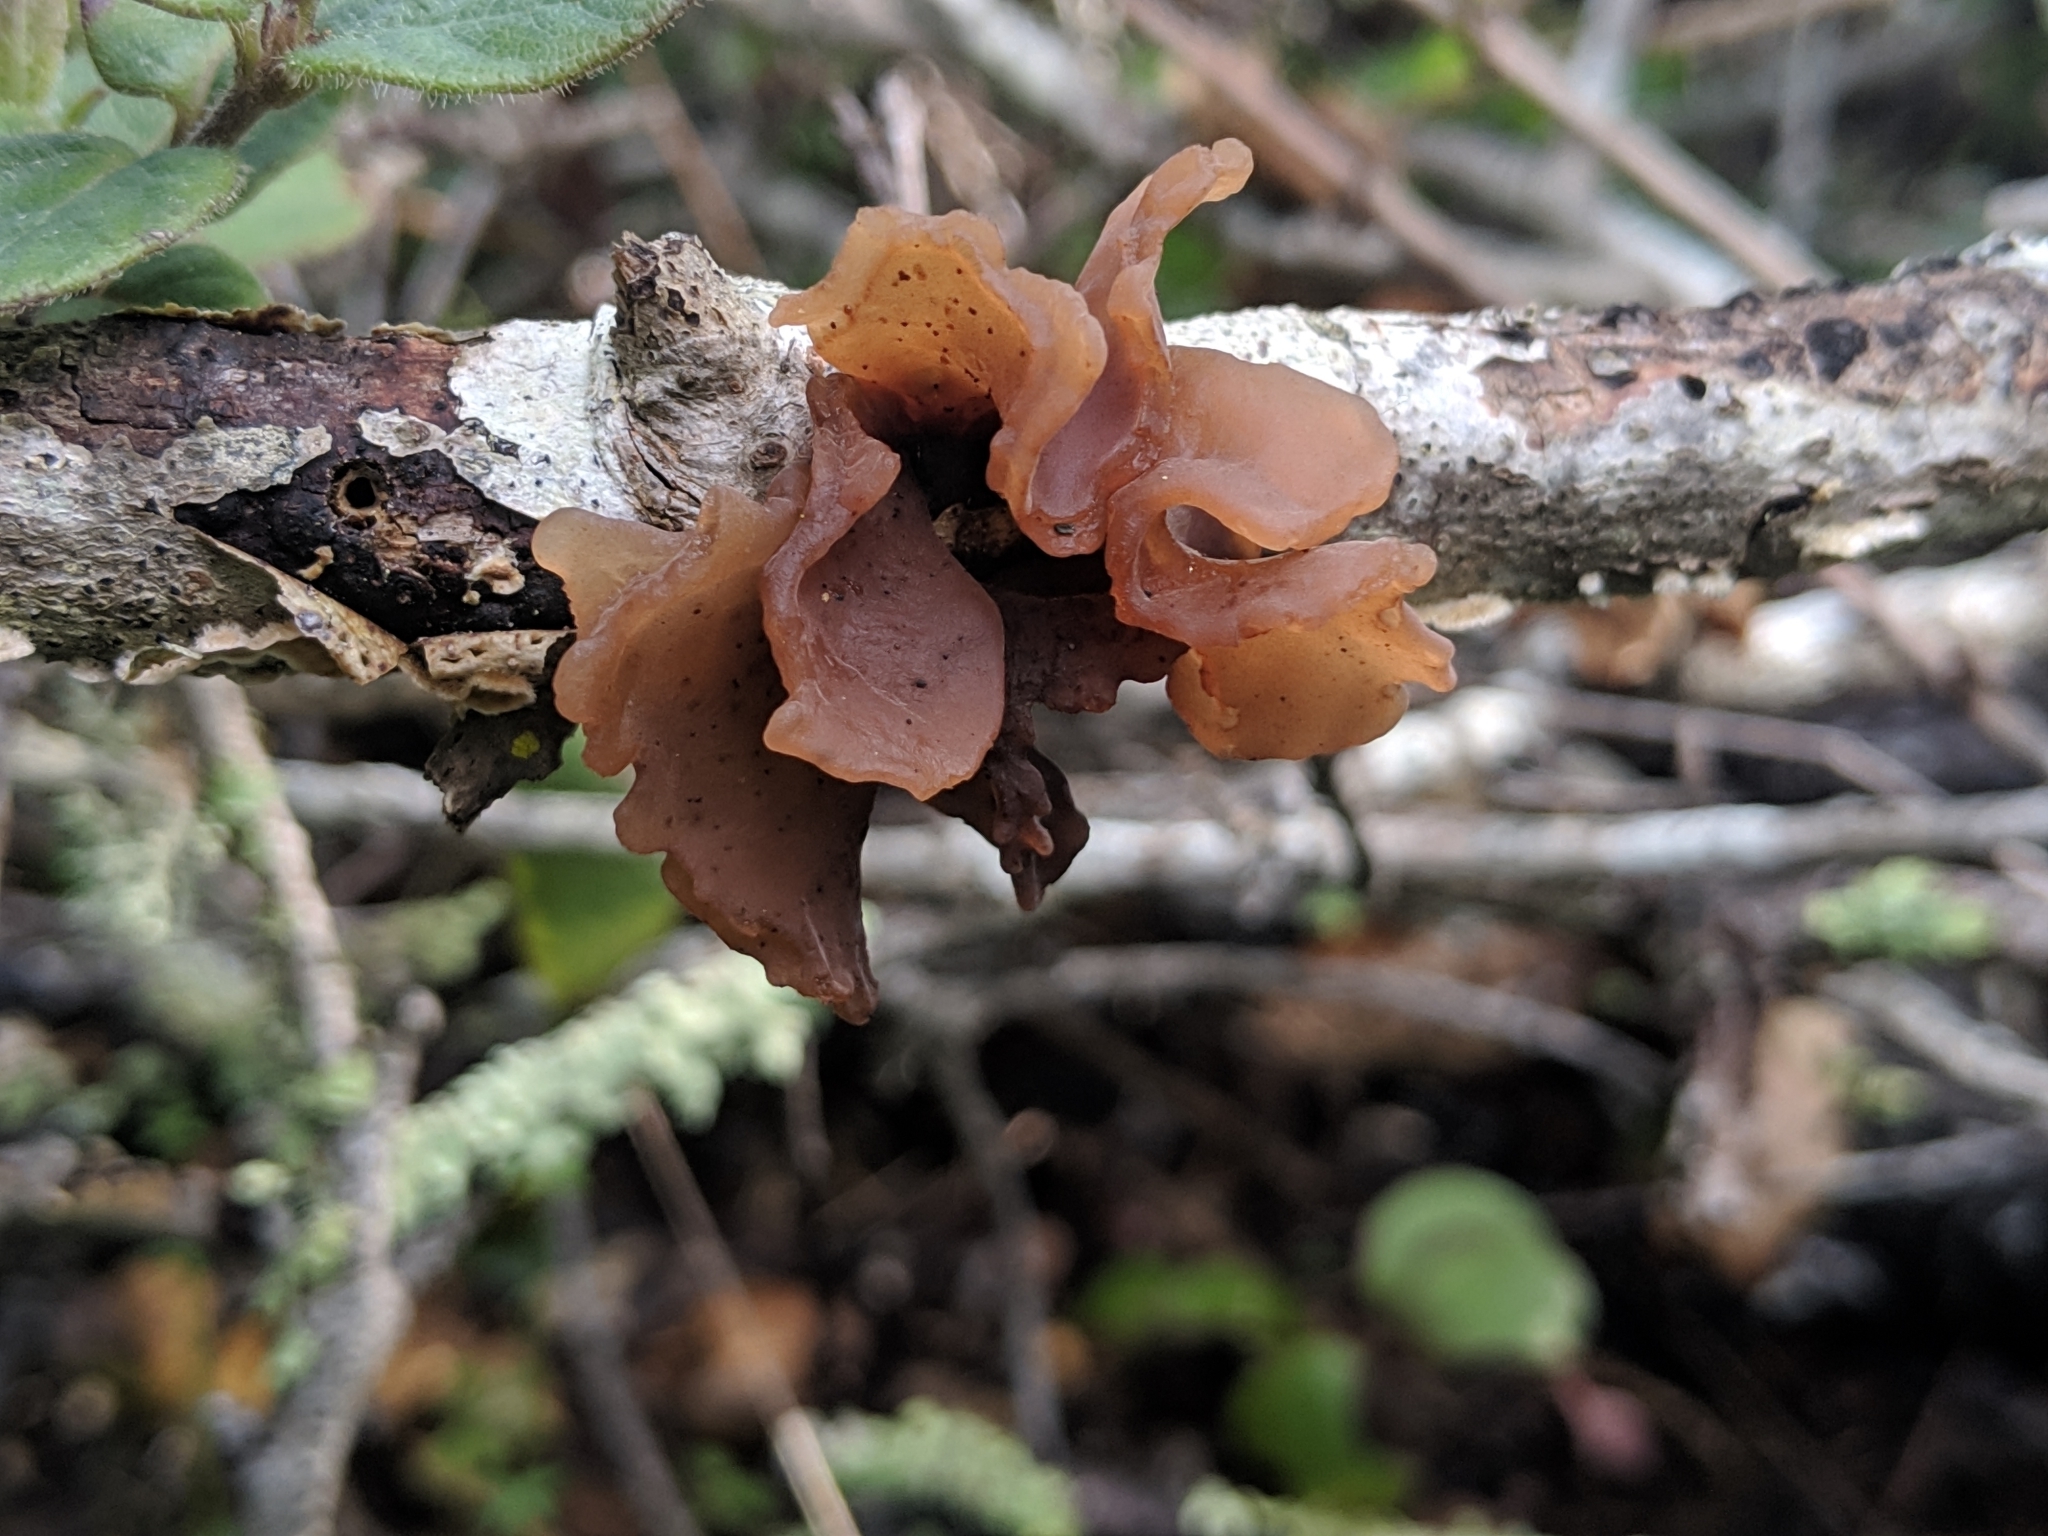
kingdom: Fungi
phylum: Basidiomycota
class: Tremellomycetes
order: Tremellales
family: Tremellaceae
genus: Phaeotremella
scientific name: Phaeotremella foliacea
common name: Leafy brain
